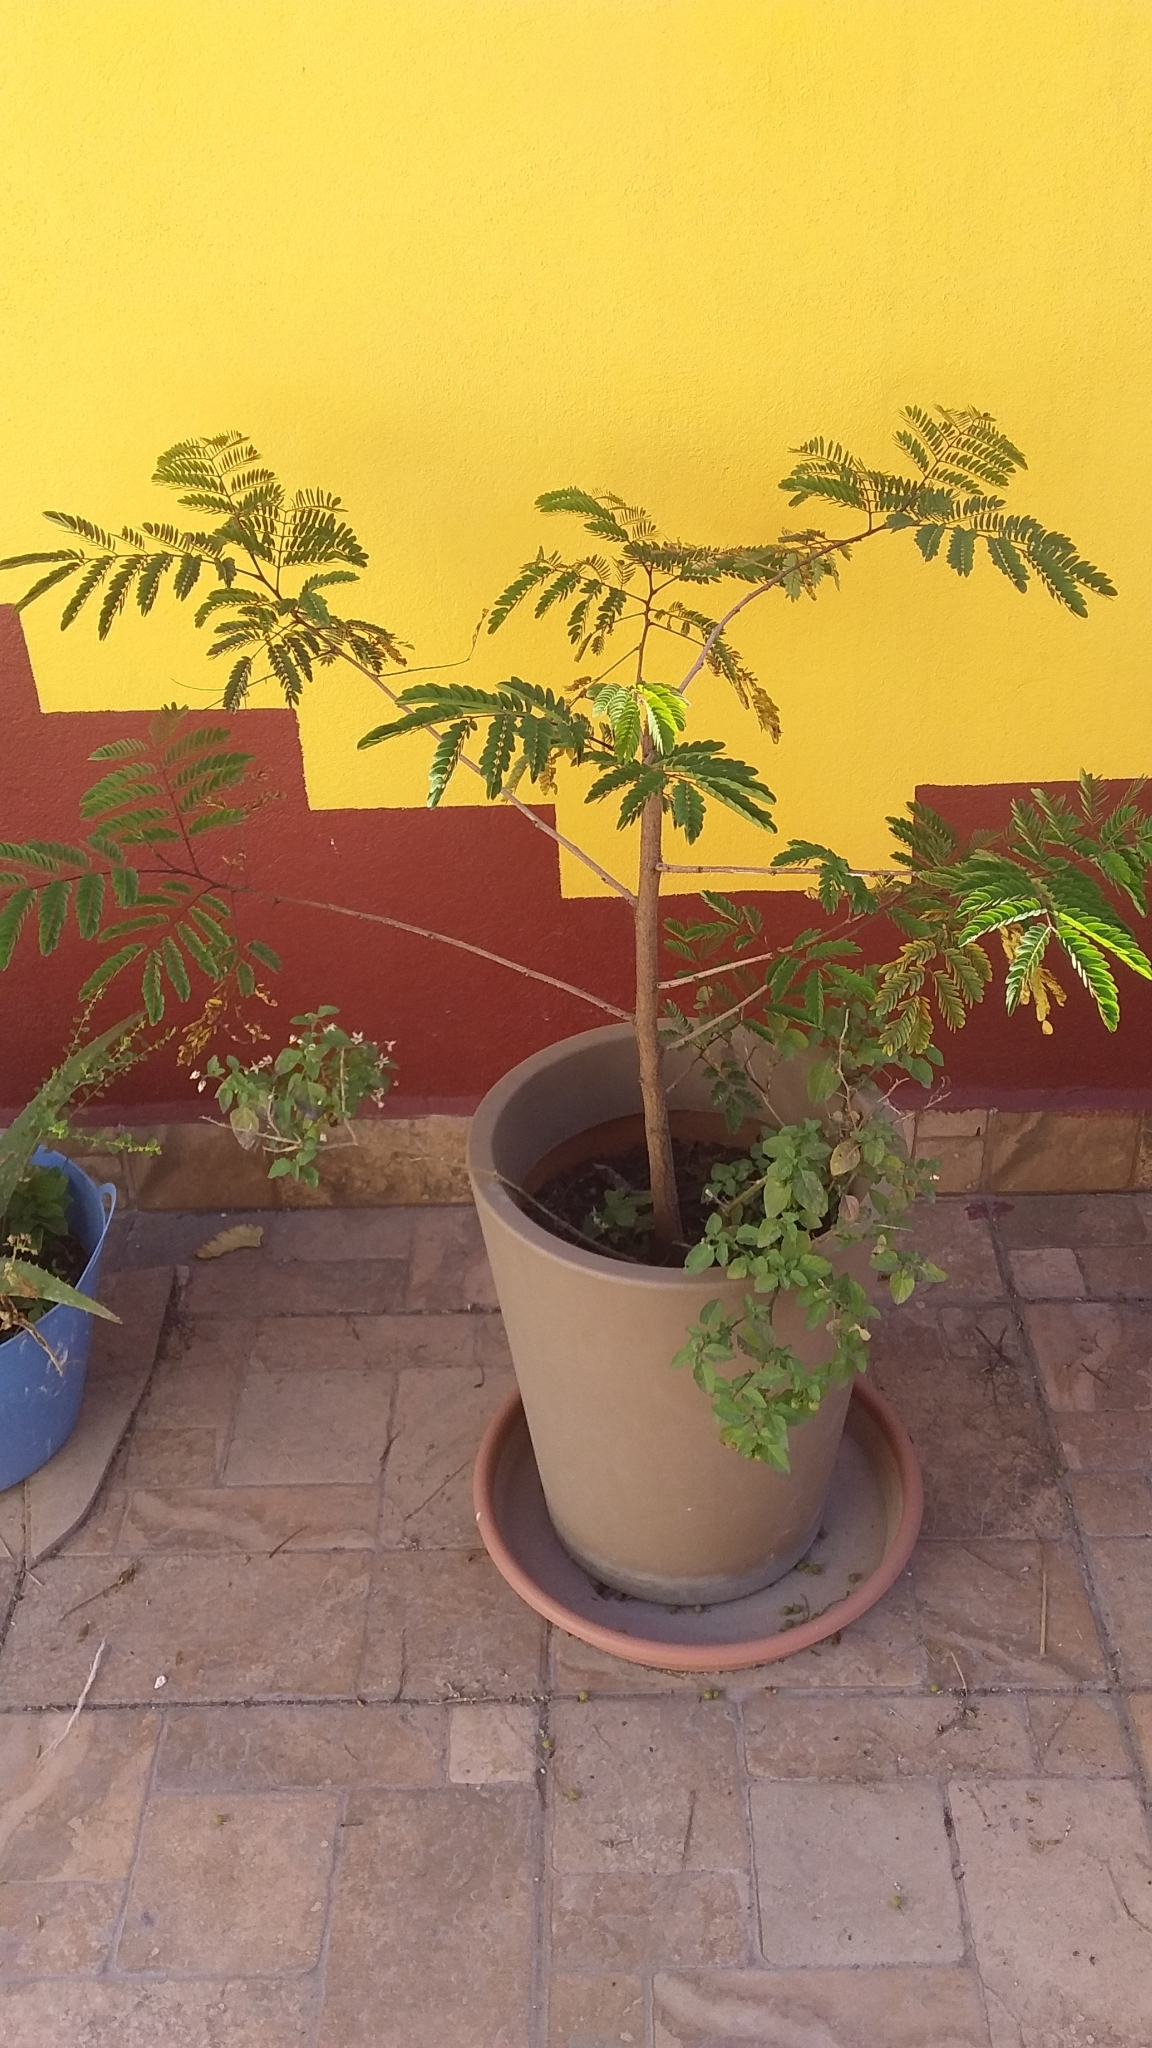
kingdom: Plantae
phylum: Tracheophyta
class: Magnoliopsida
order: Fabales
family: Fabaceae
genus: Senegalia
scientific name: Senegalia greggii
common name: Texas-mimosa
